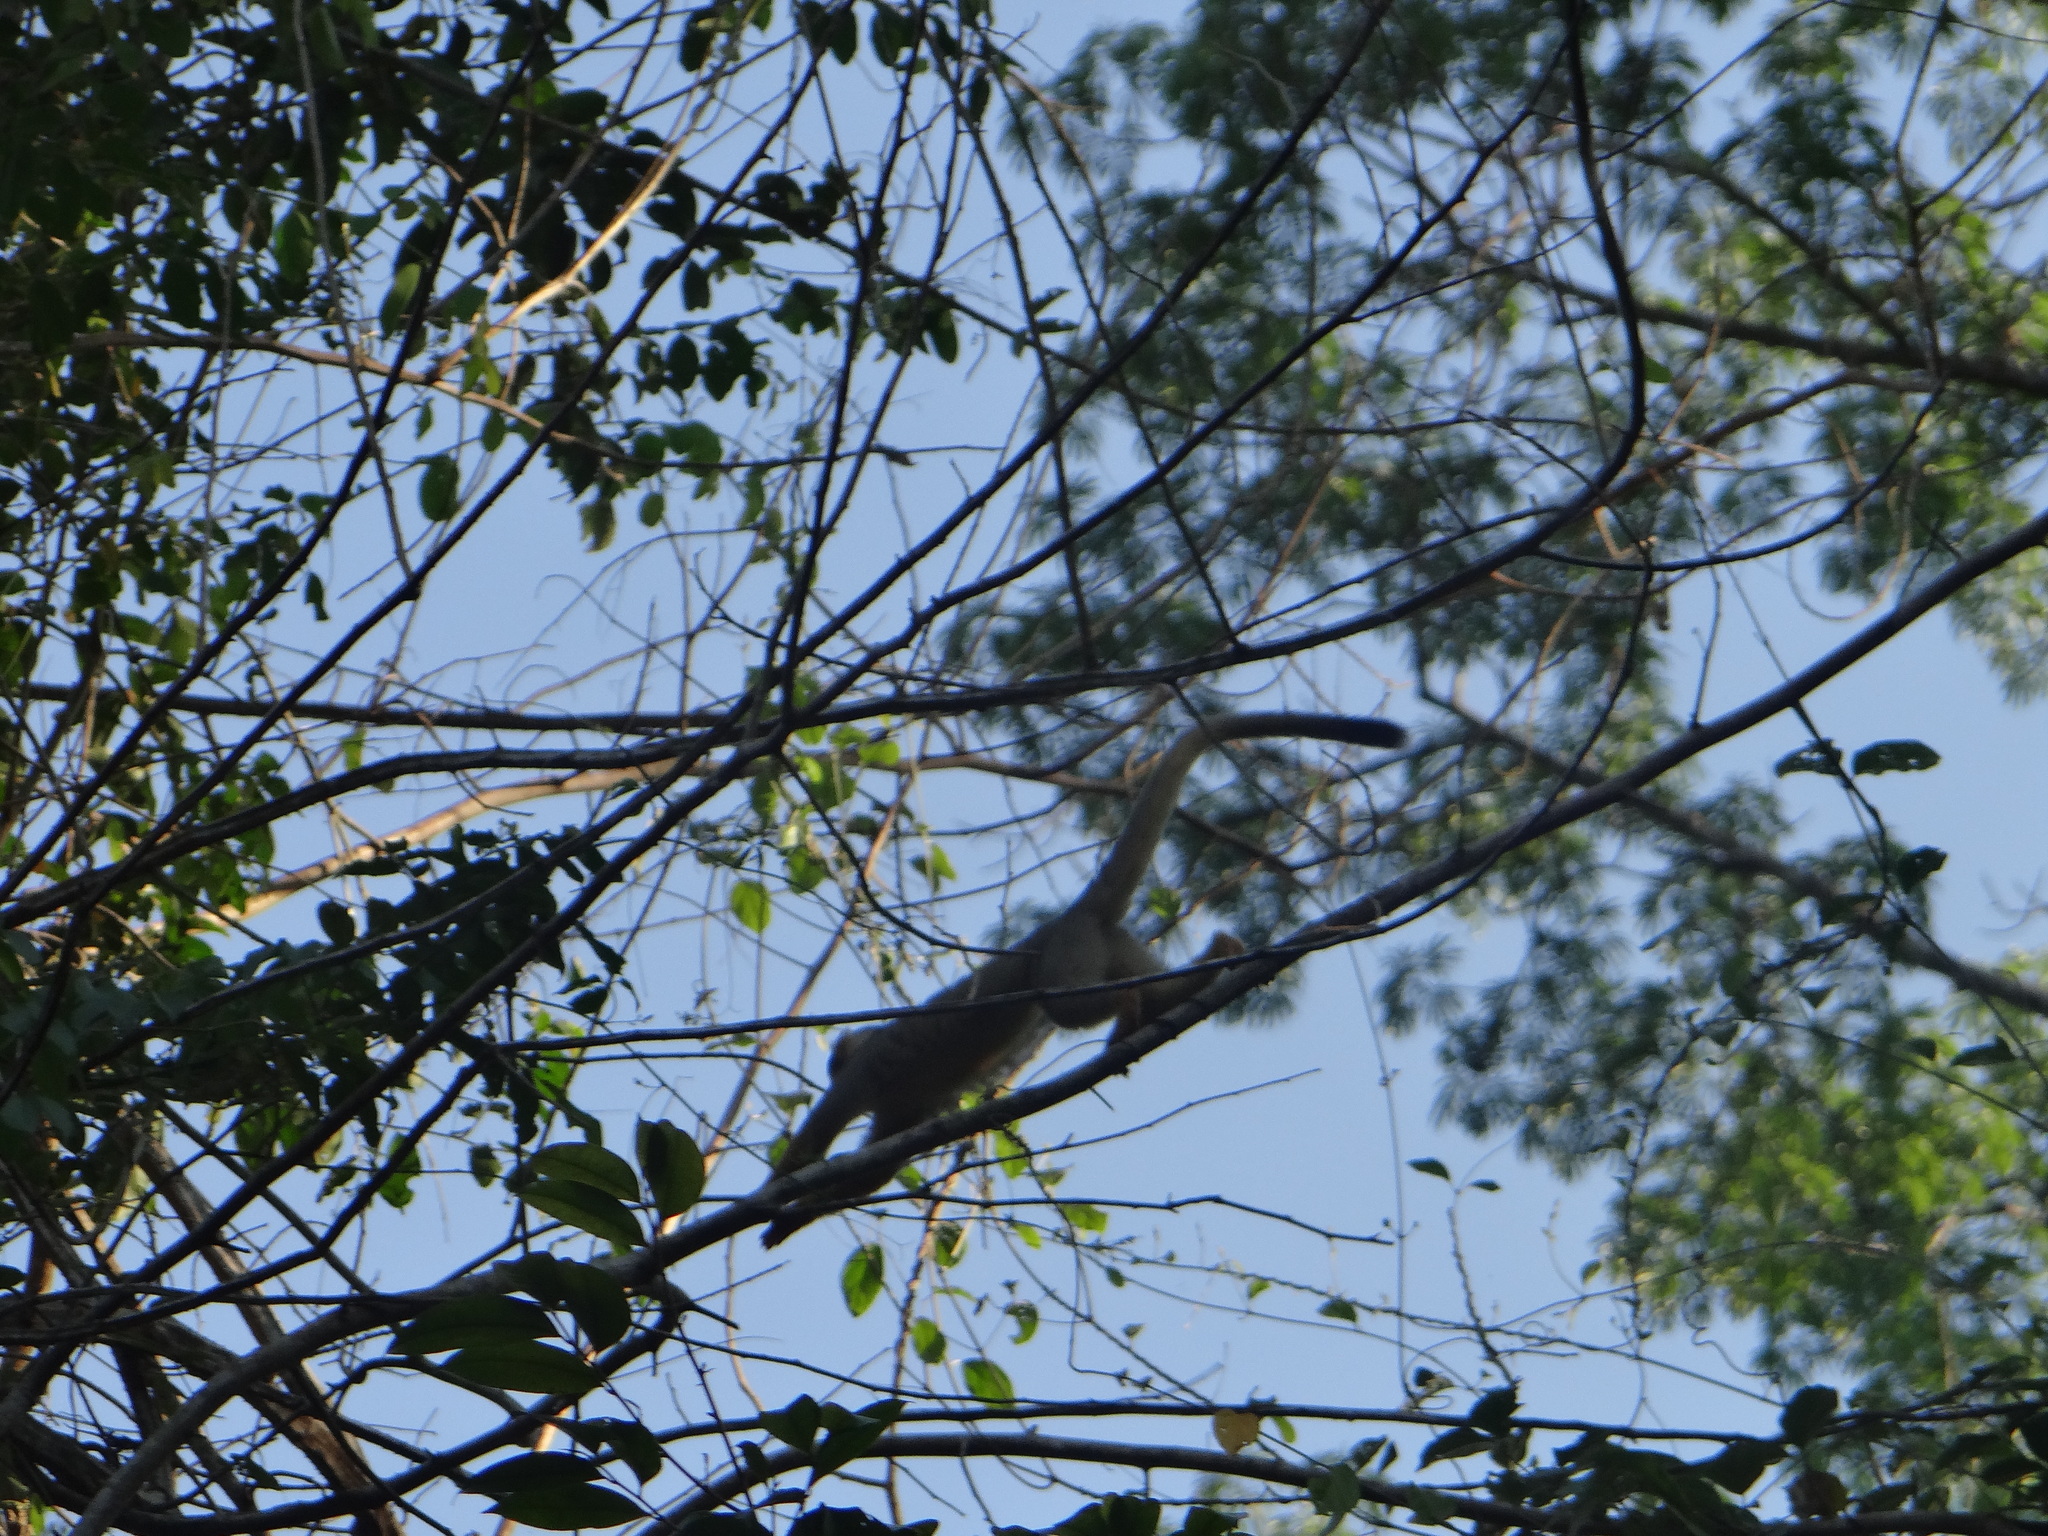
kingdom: Animalia
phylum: Chordata
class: Mammalia
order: Primates
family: Cebidae
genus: Saimiri
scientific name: Saimiri boliviensis
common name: Black-capped squirrel monkey
